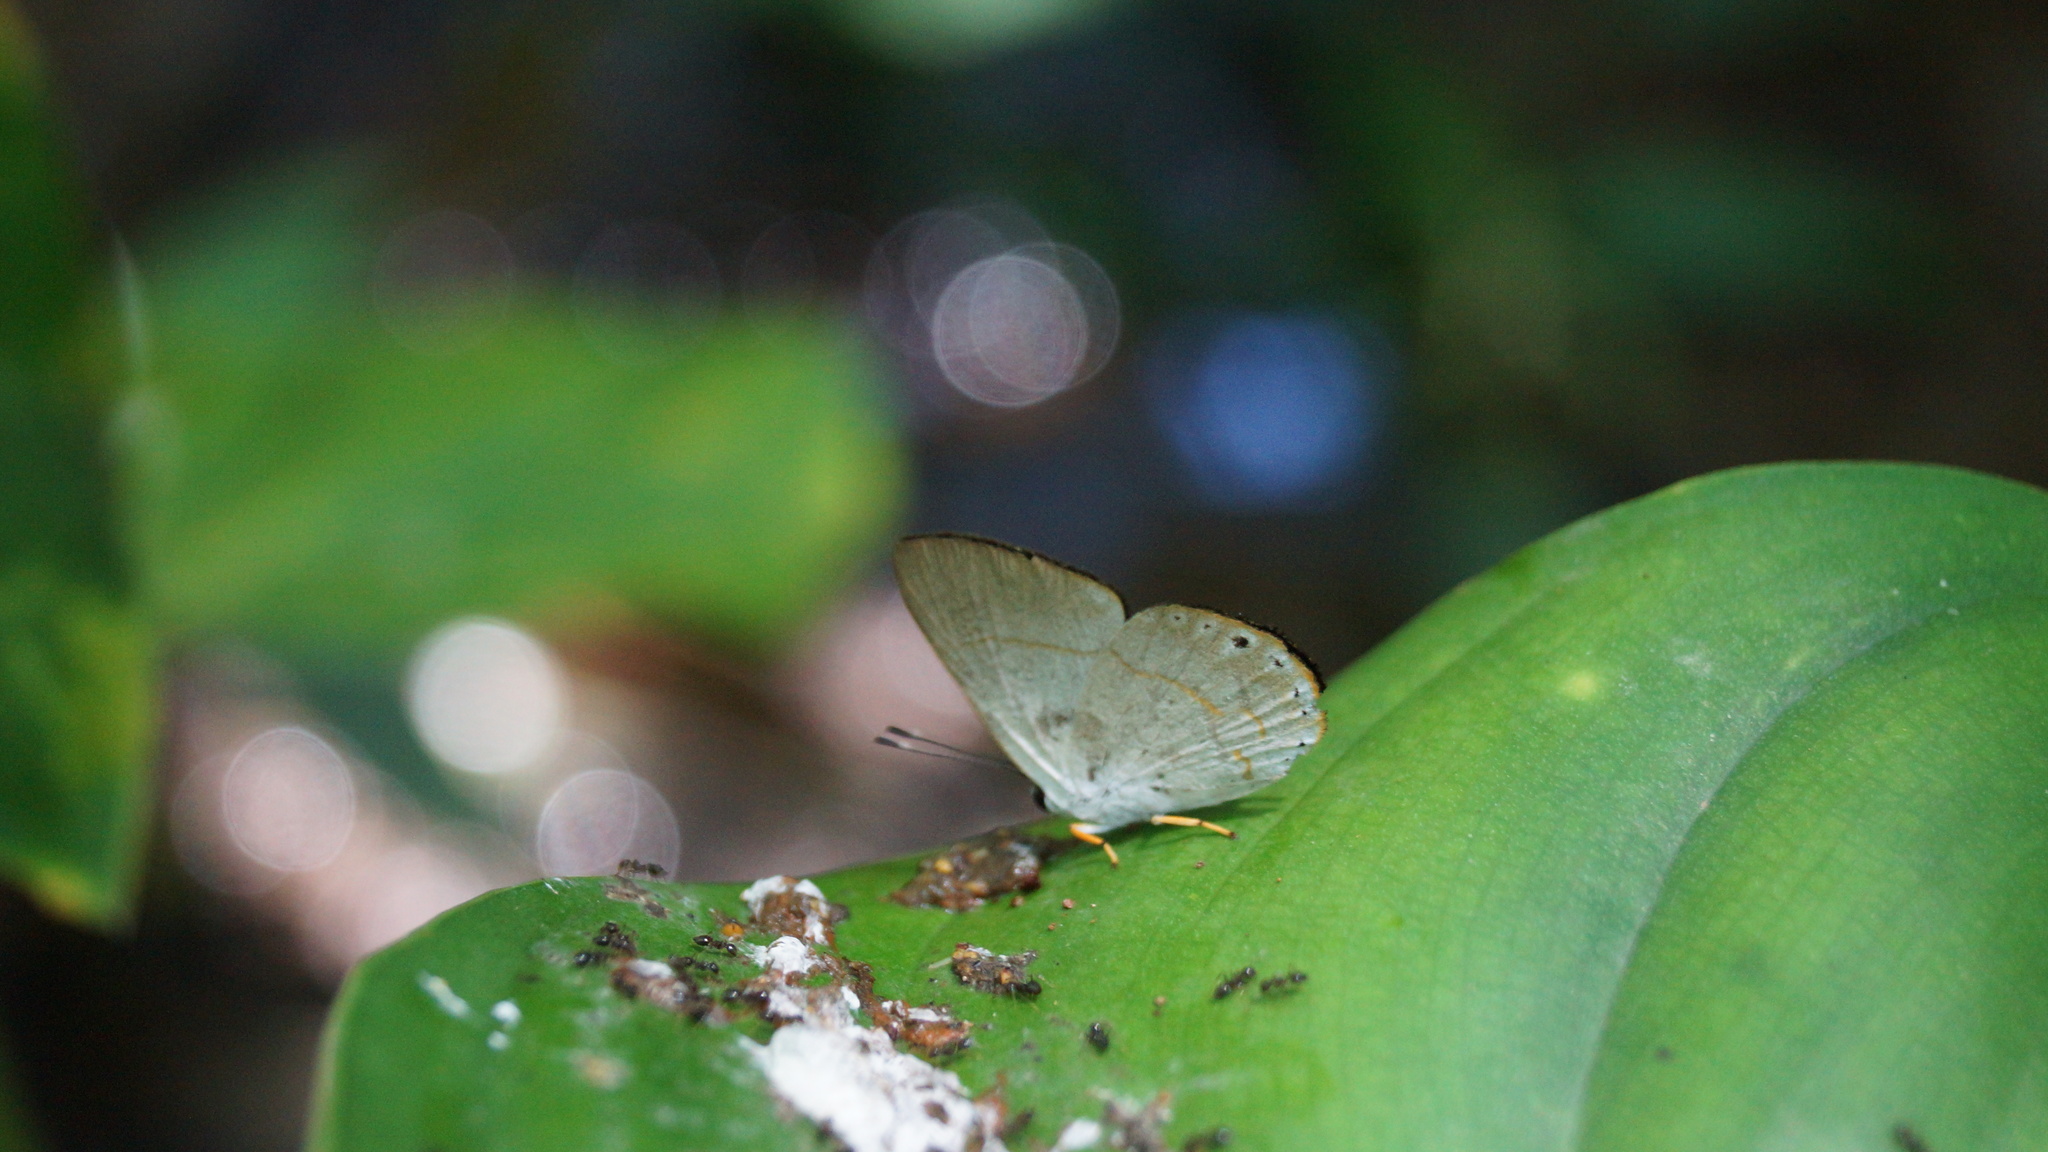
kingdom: Animalia
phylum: Arthropoda
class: Insecta
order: Lepidoptera
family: Lycaenidae
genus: Euselasia
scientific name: Euselasia eusepus
